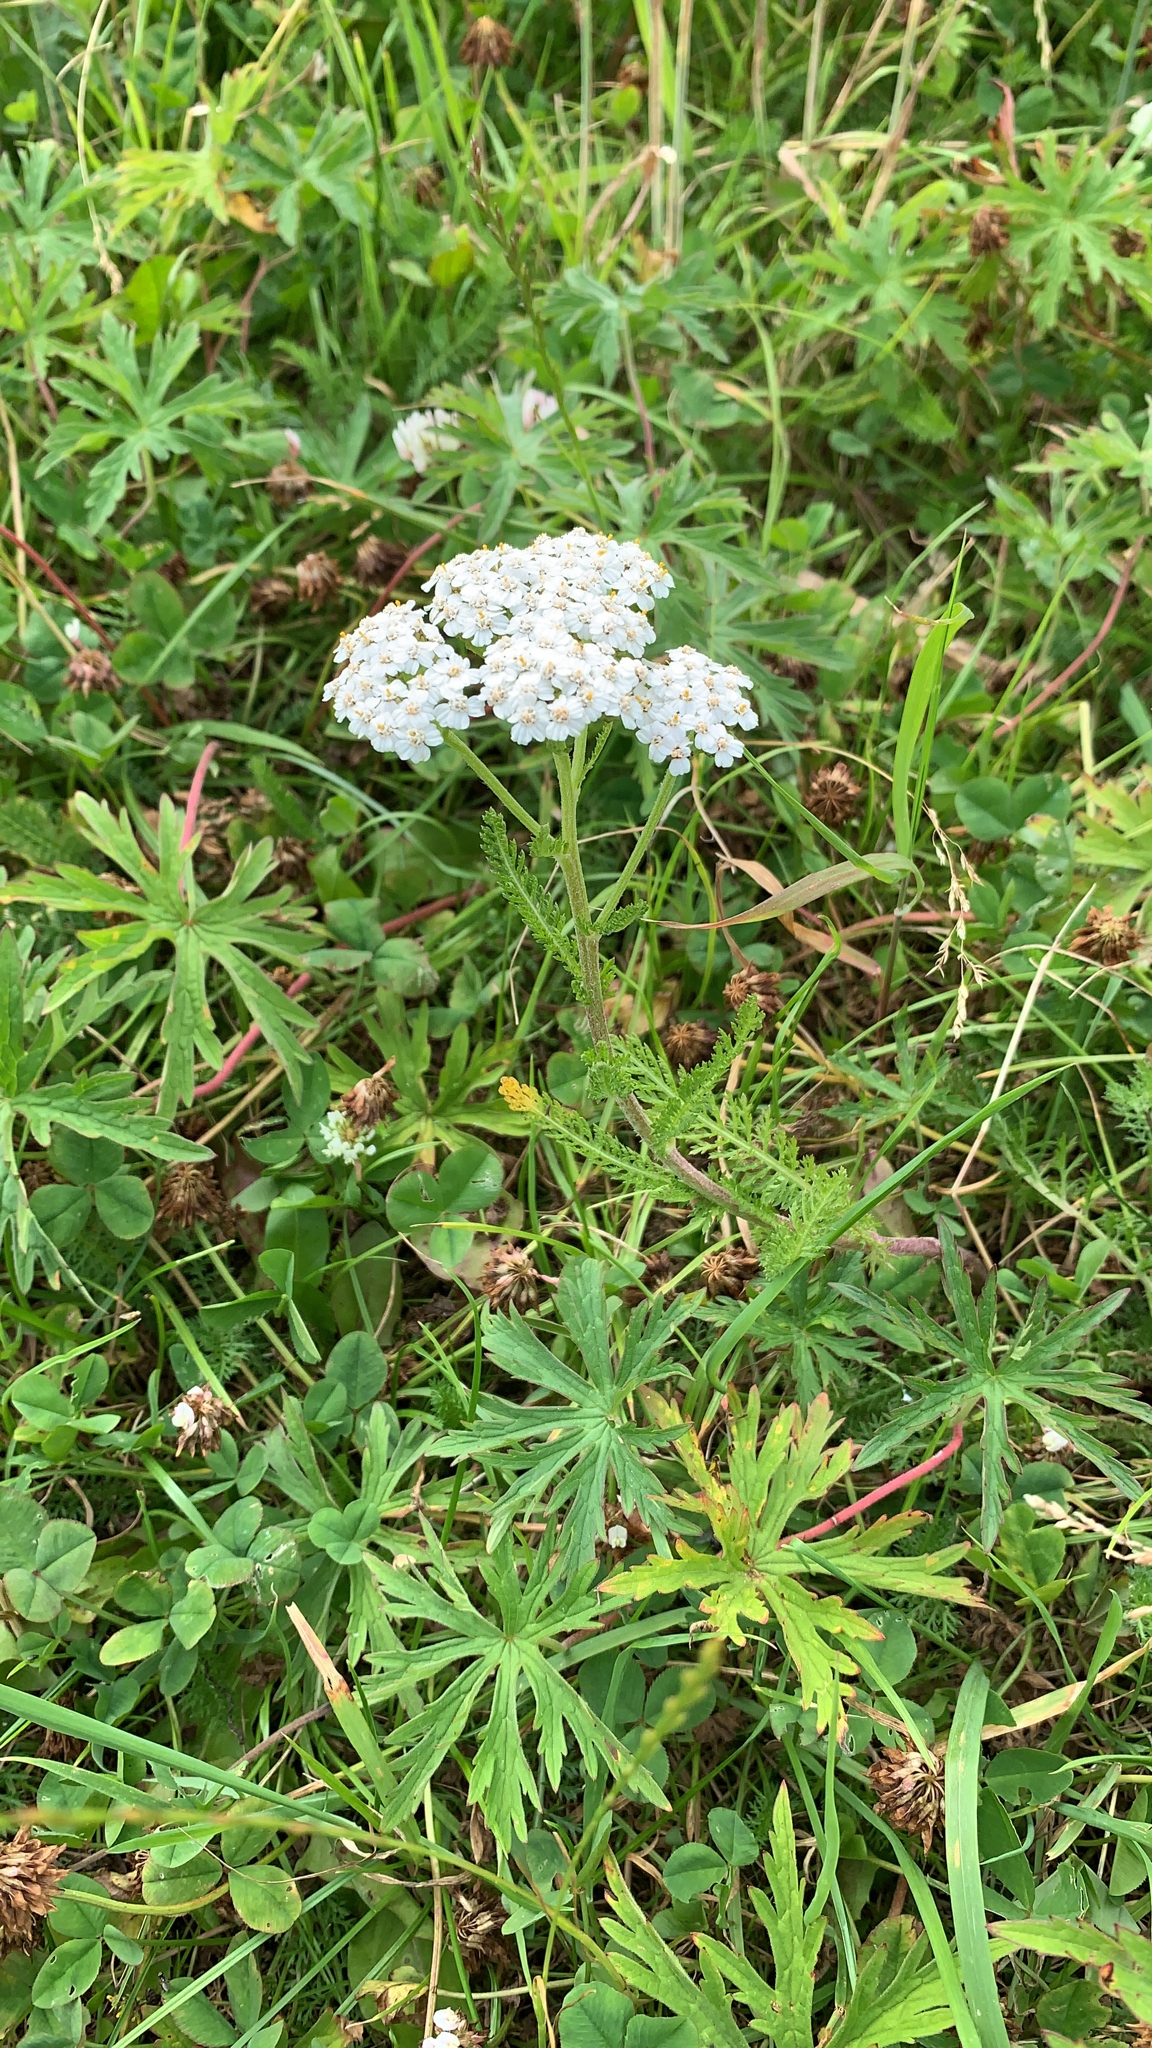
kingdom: Plantae
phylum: Tracheophyta
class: Magnoliopsida
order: Asterales
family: Asteraceae
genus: Achillea
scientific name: Achillea millefolium
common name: Yarrow
